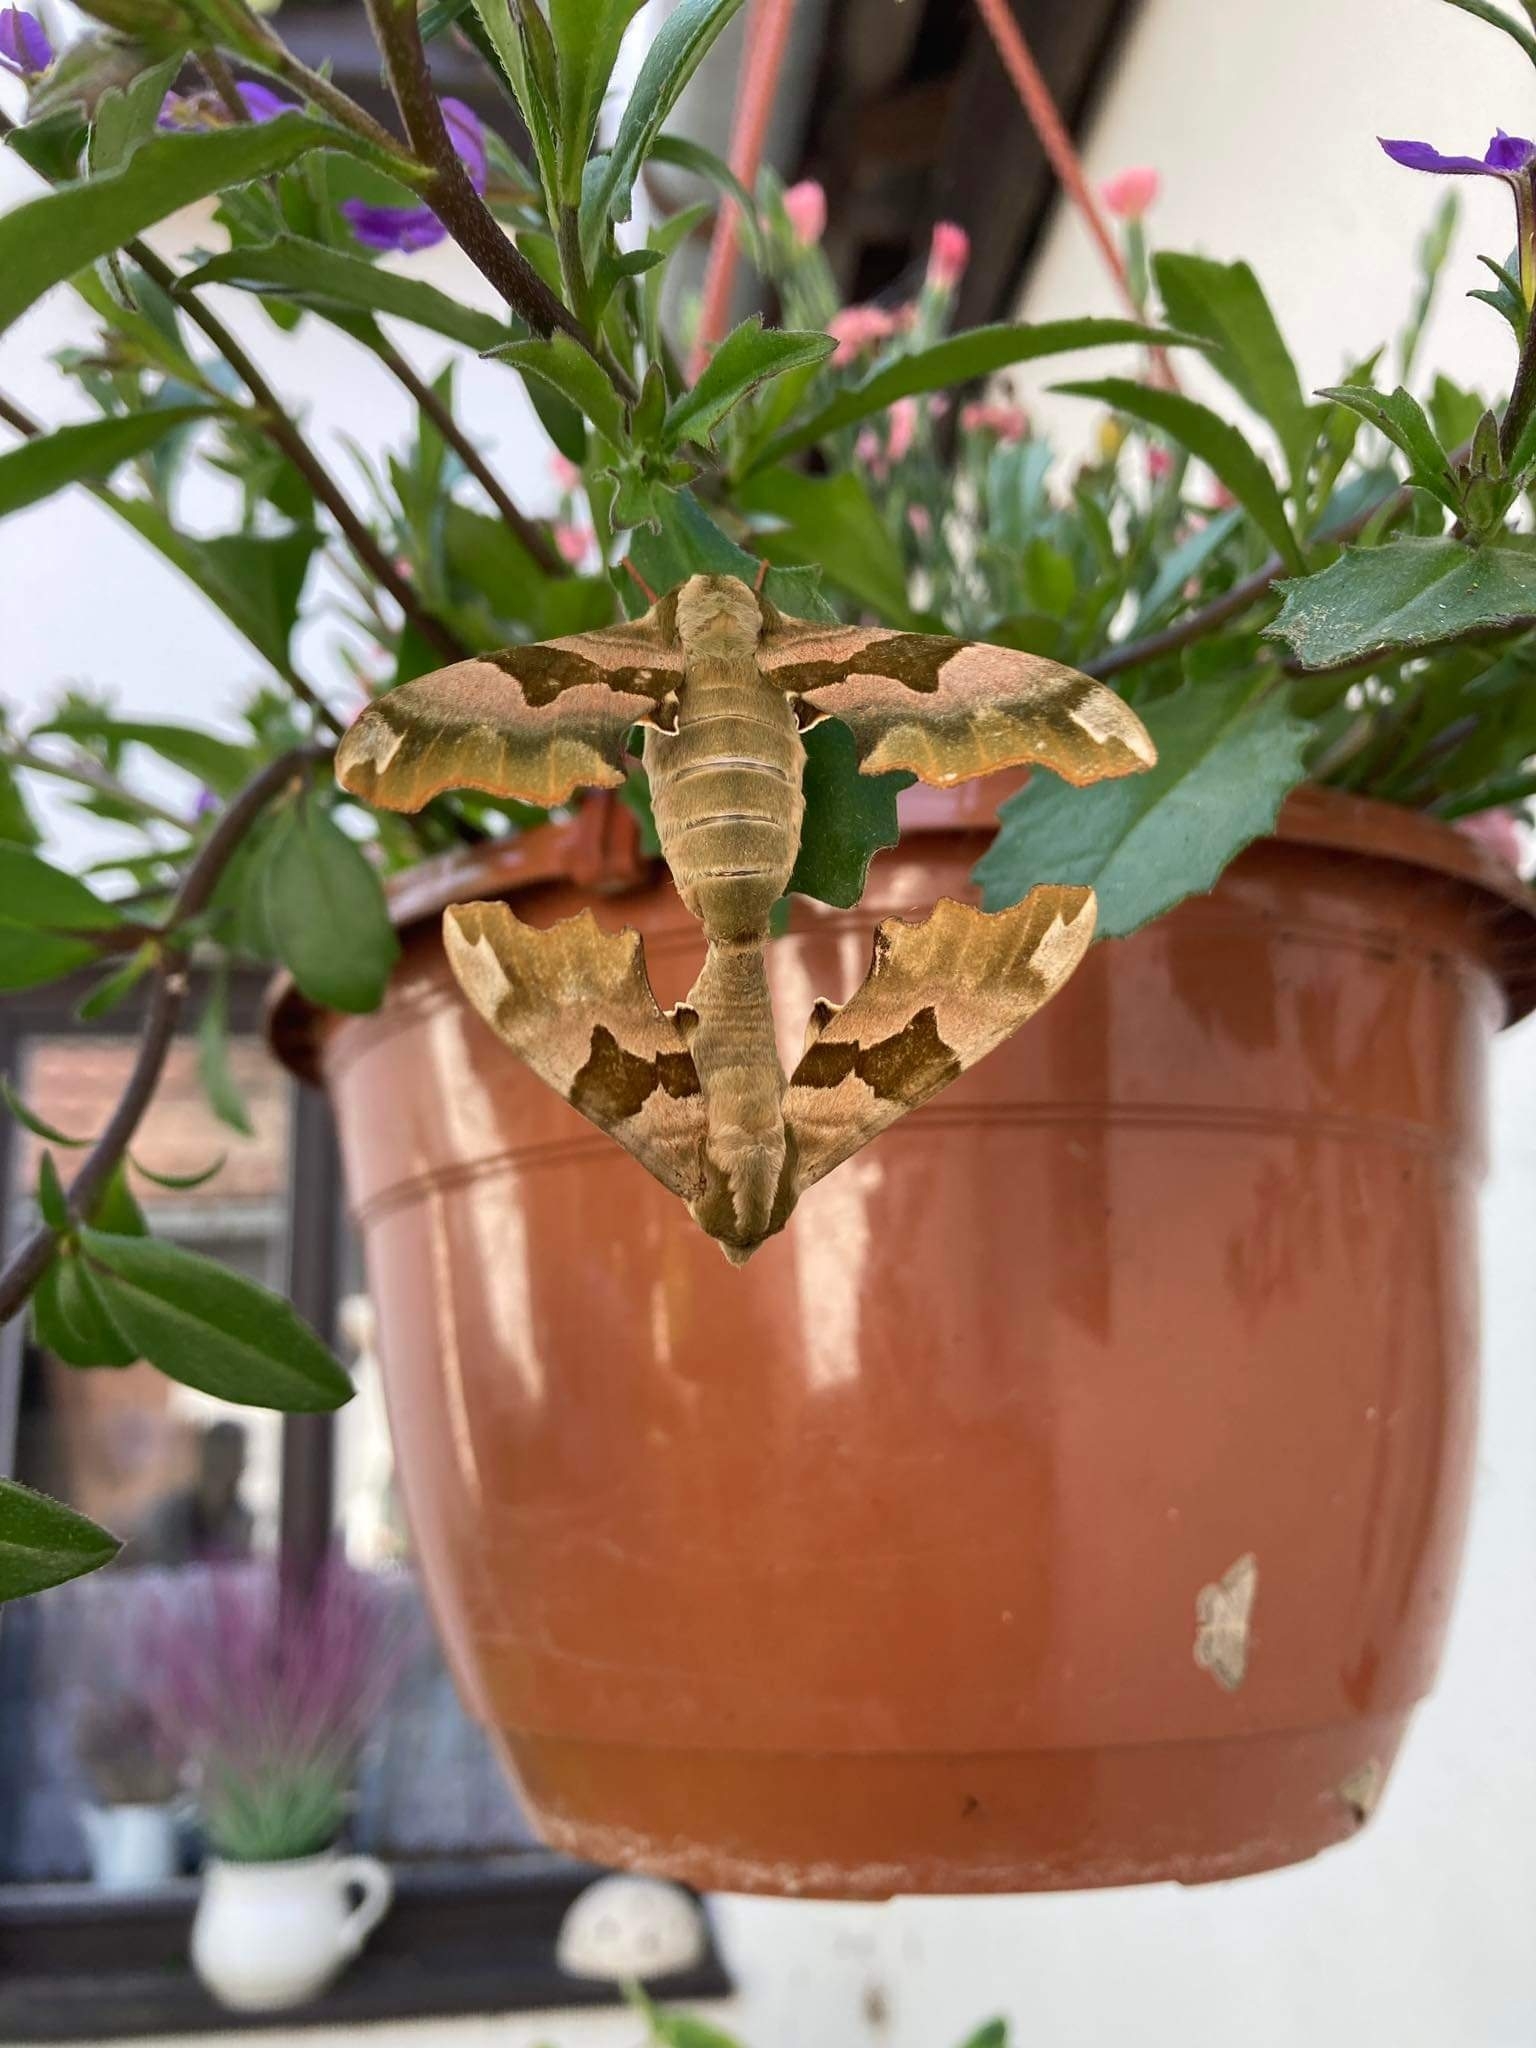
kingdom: Animalia
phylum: Arthropoda
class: Insecta
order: Lepidoptera
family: Sphingidae
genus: Mimas
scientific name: Mimas tiliae
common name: Lime hawk-moth
